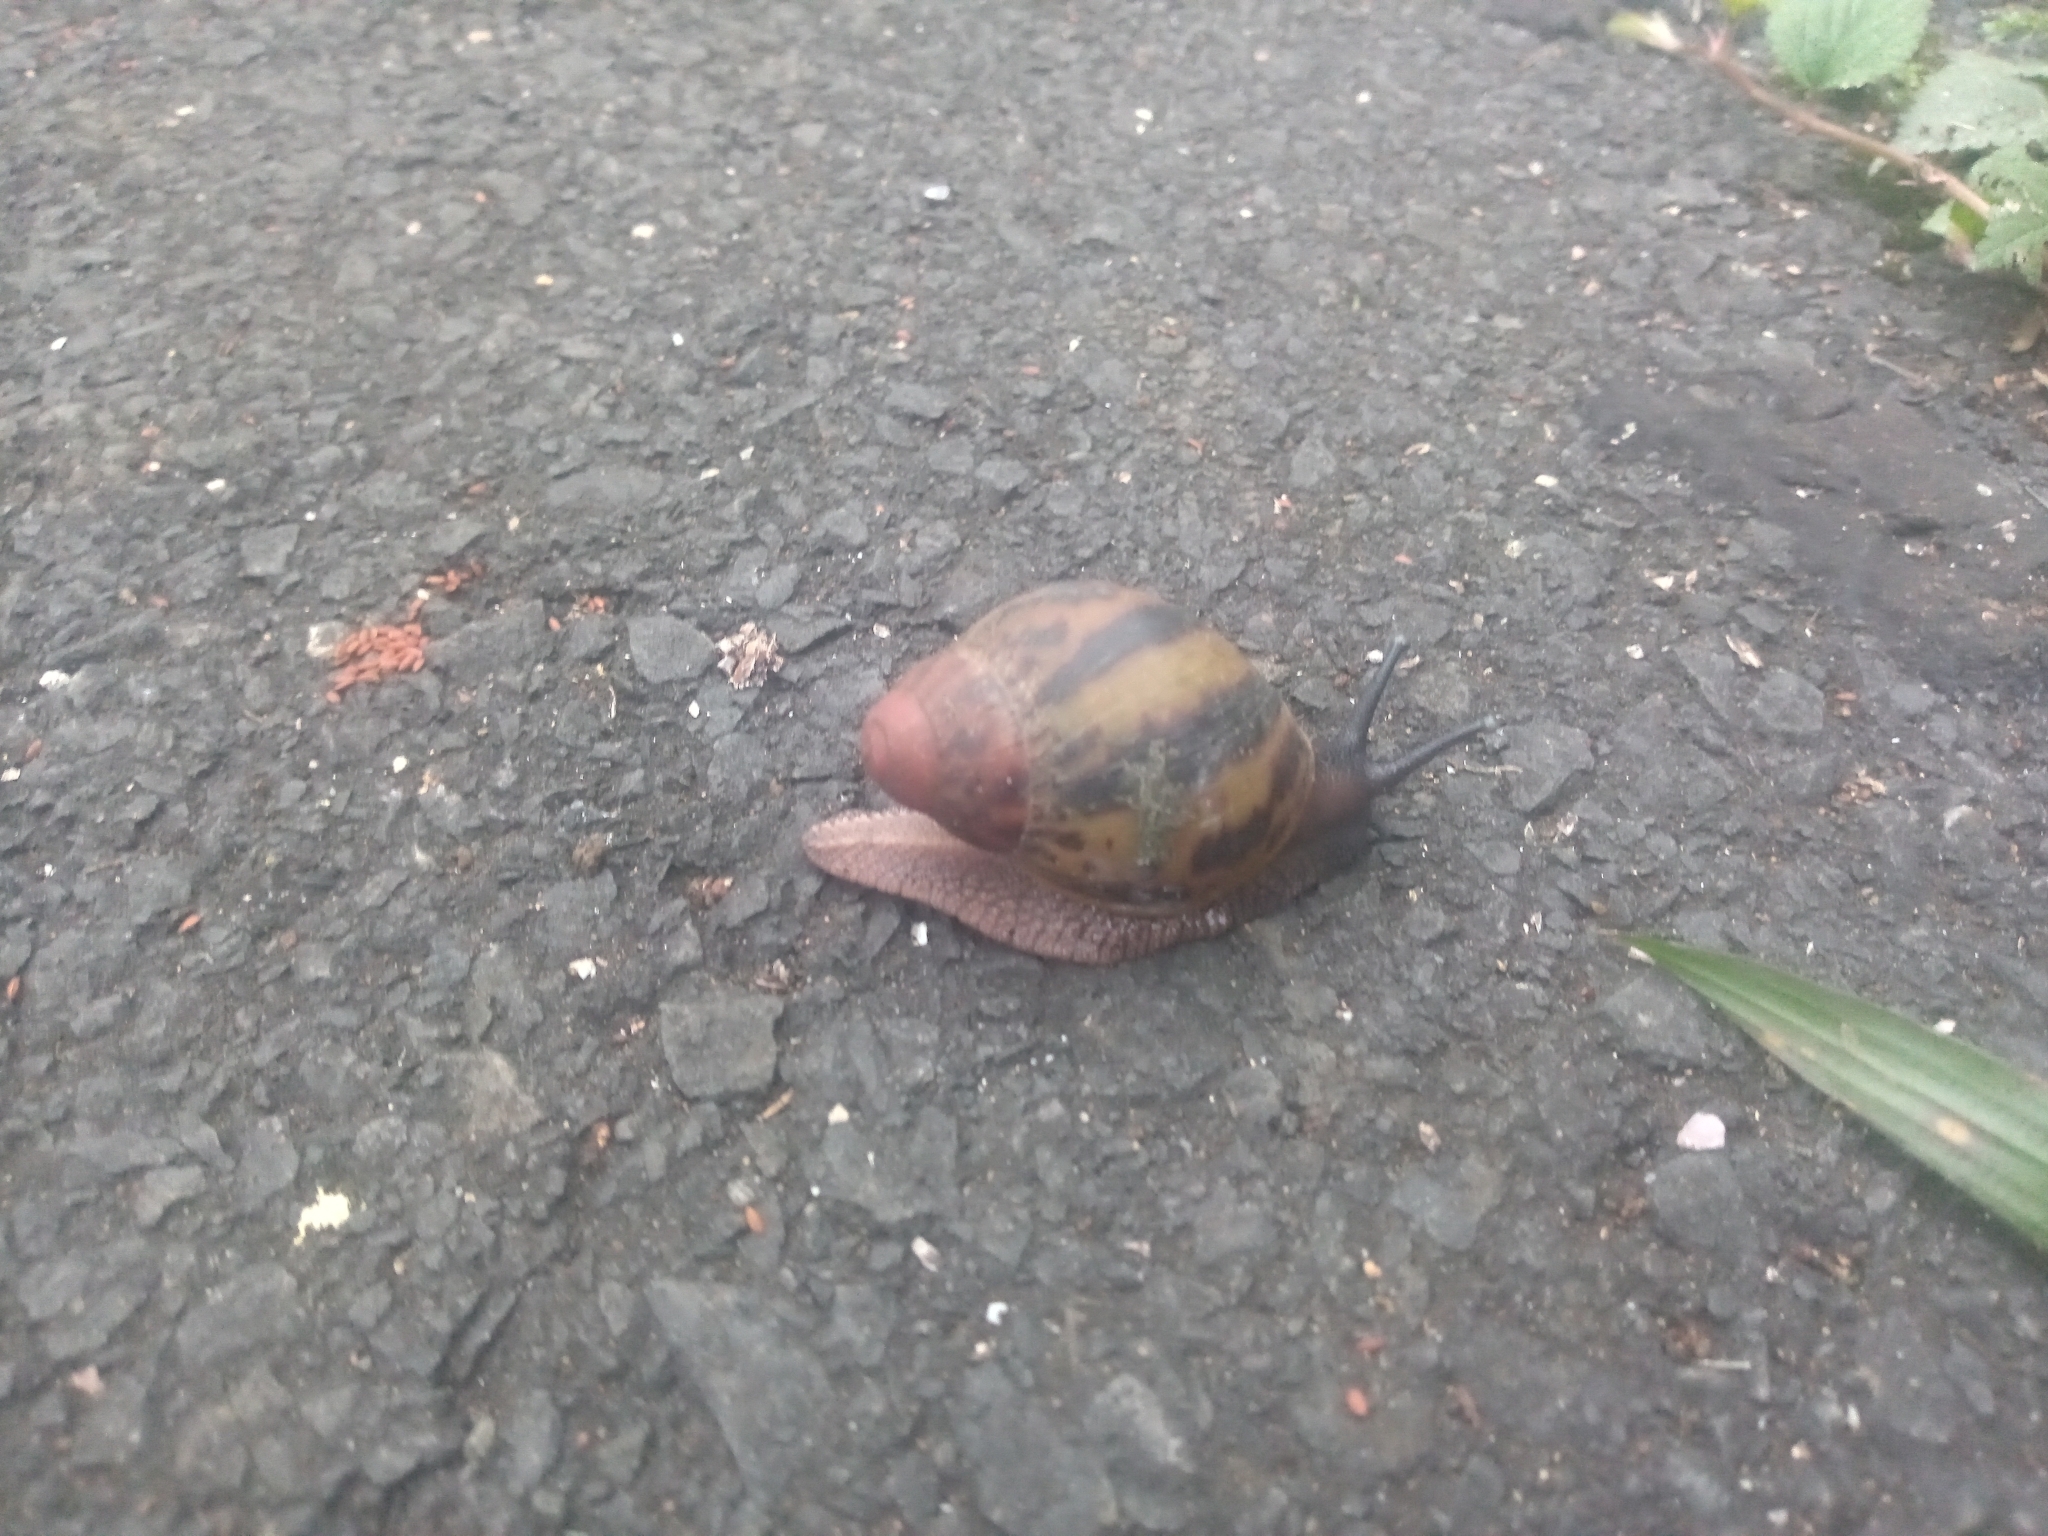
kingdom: Animalia
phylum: Mollusca
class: Gastropoda
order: Stylommatophora
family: Achatinidae
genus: Archachatina
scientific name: Archachatina marginata
